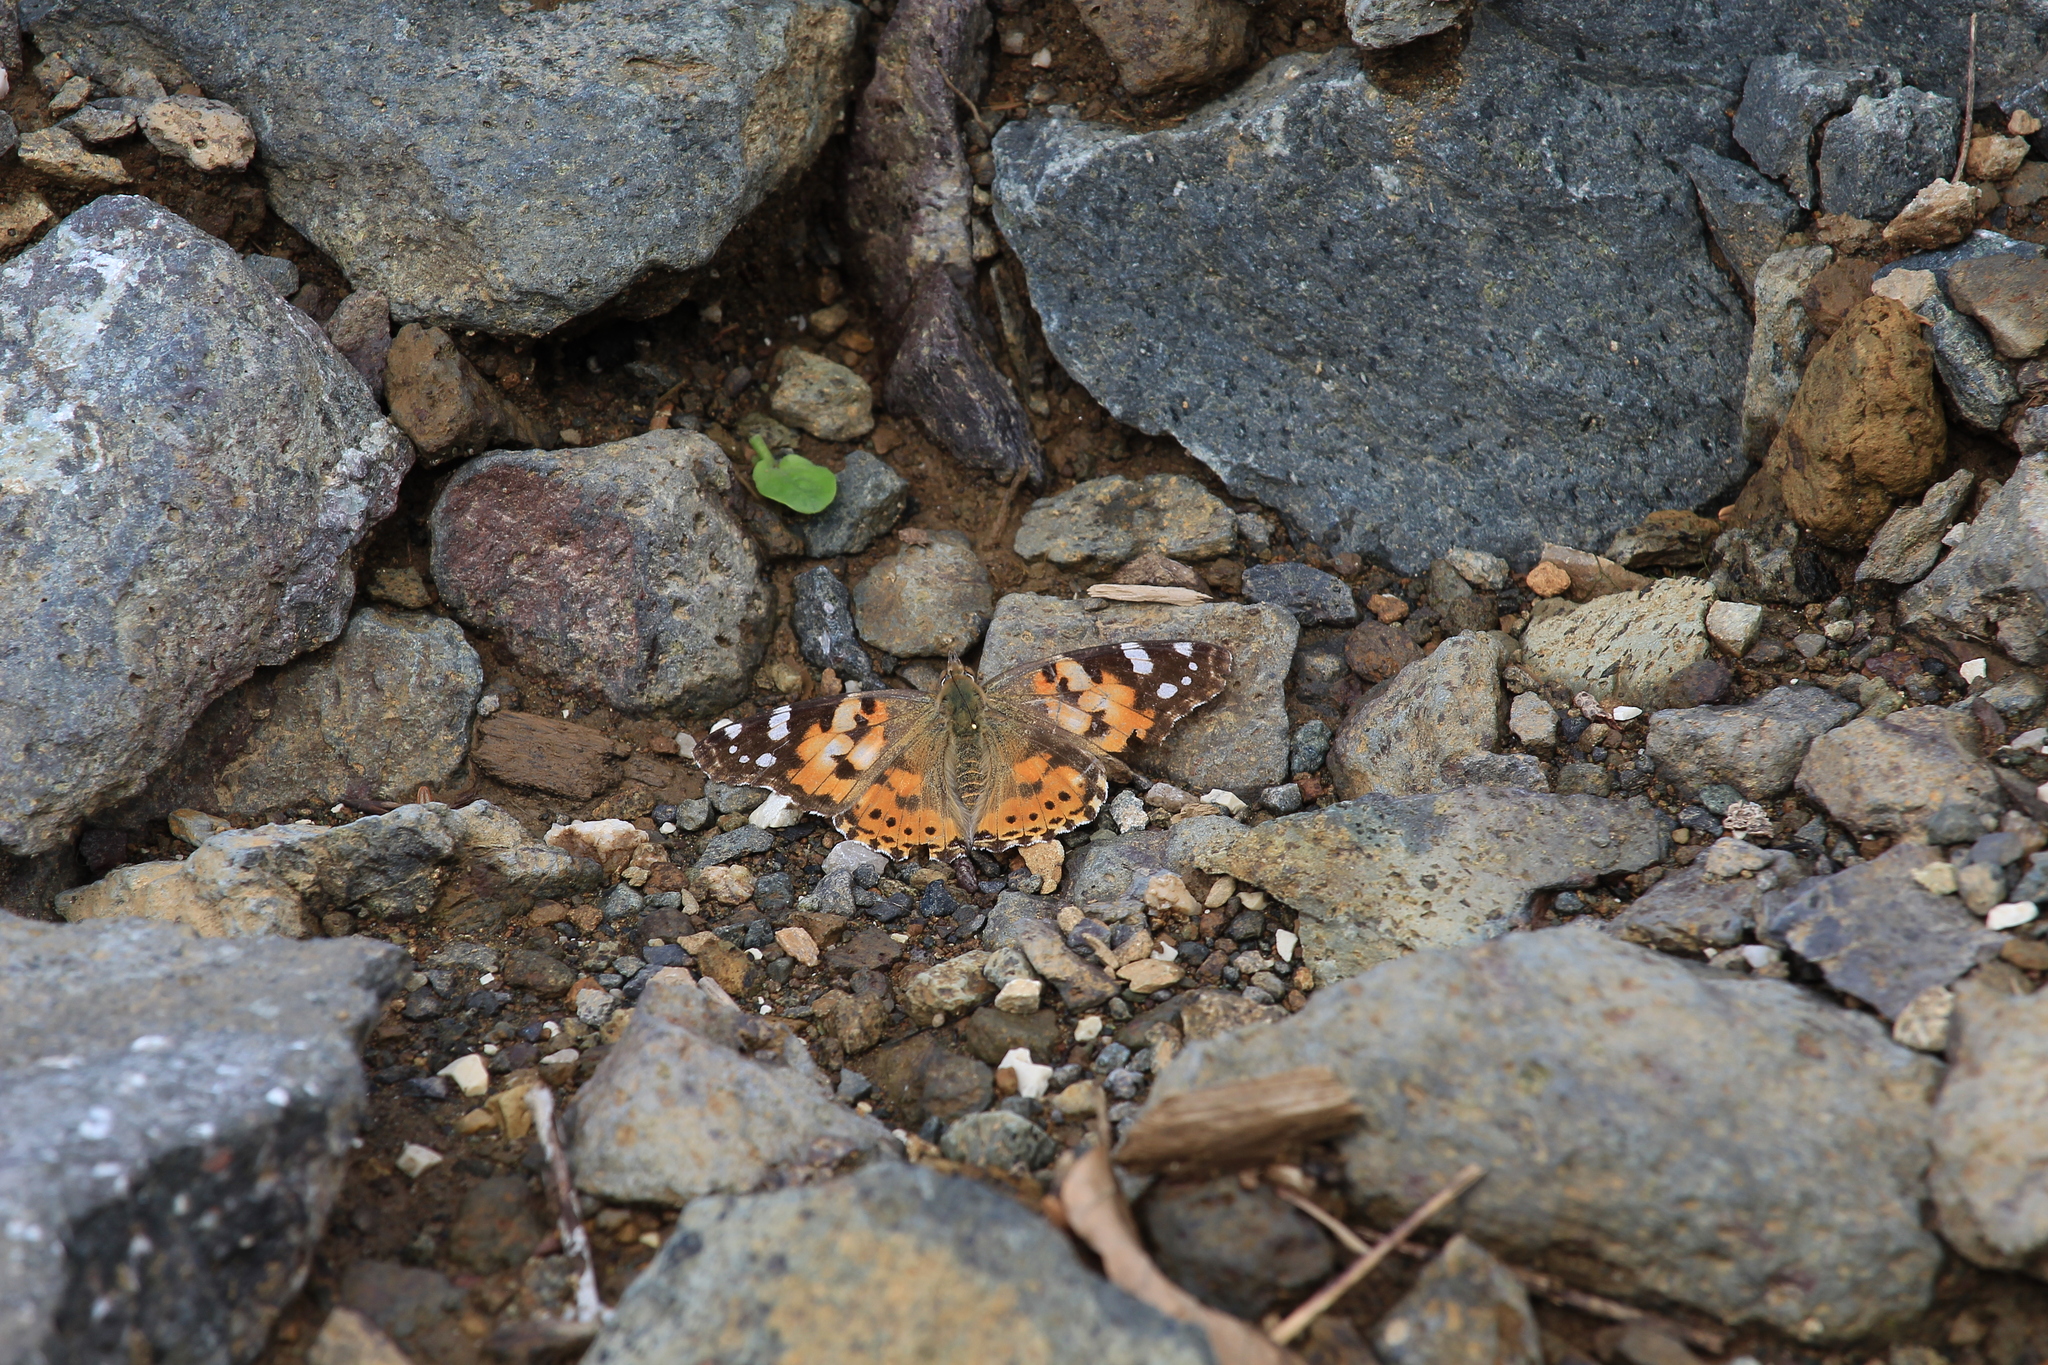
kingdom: Animalia
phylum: Arthropoda
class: Insecta
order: Lepidoptera
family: Nymphalidae
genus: Vanessa
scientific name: Vanessa cardui
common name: Painted lady
